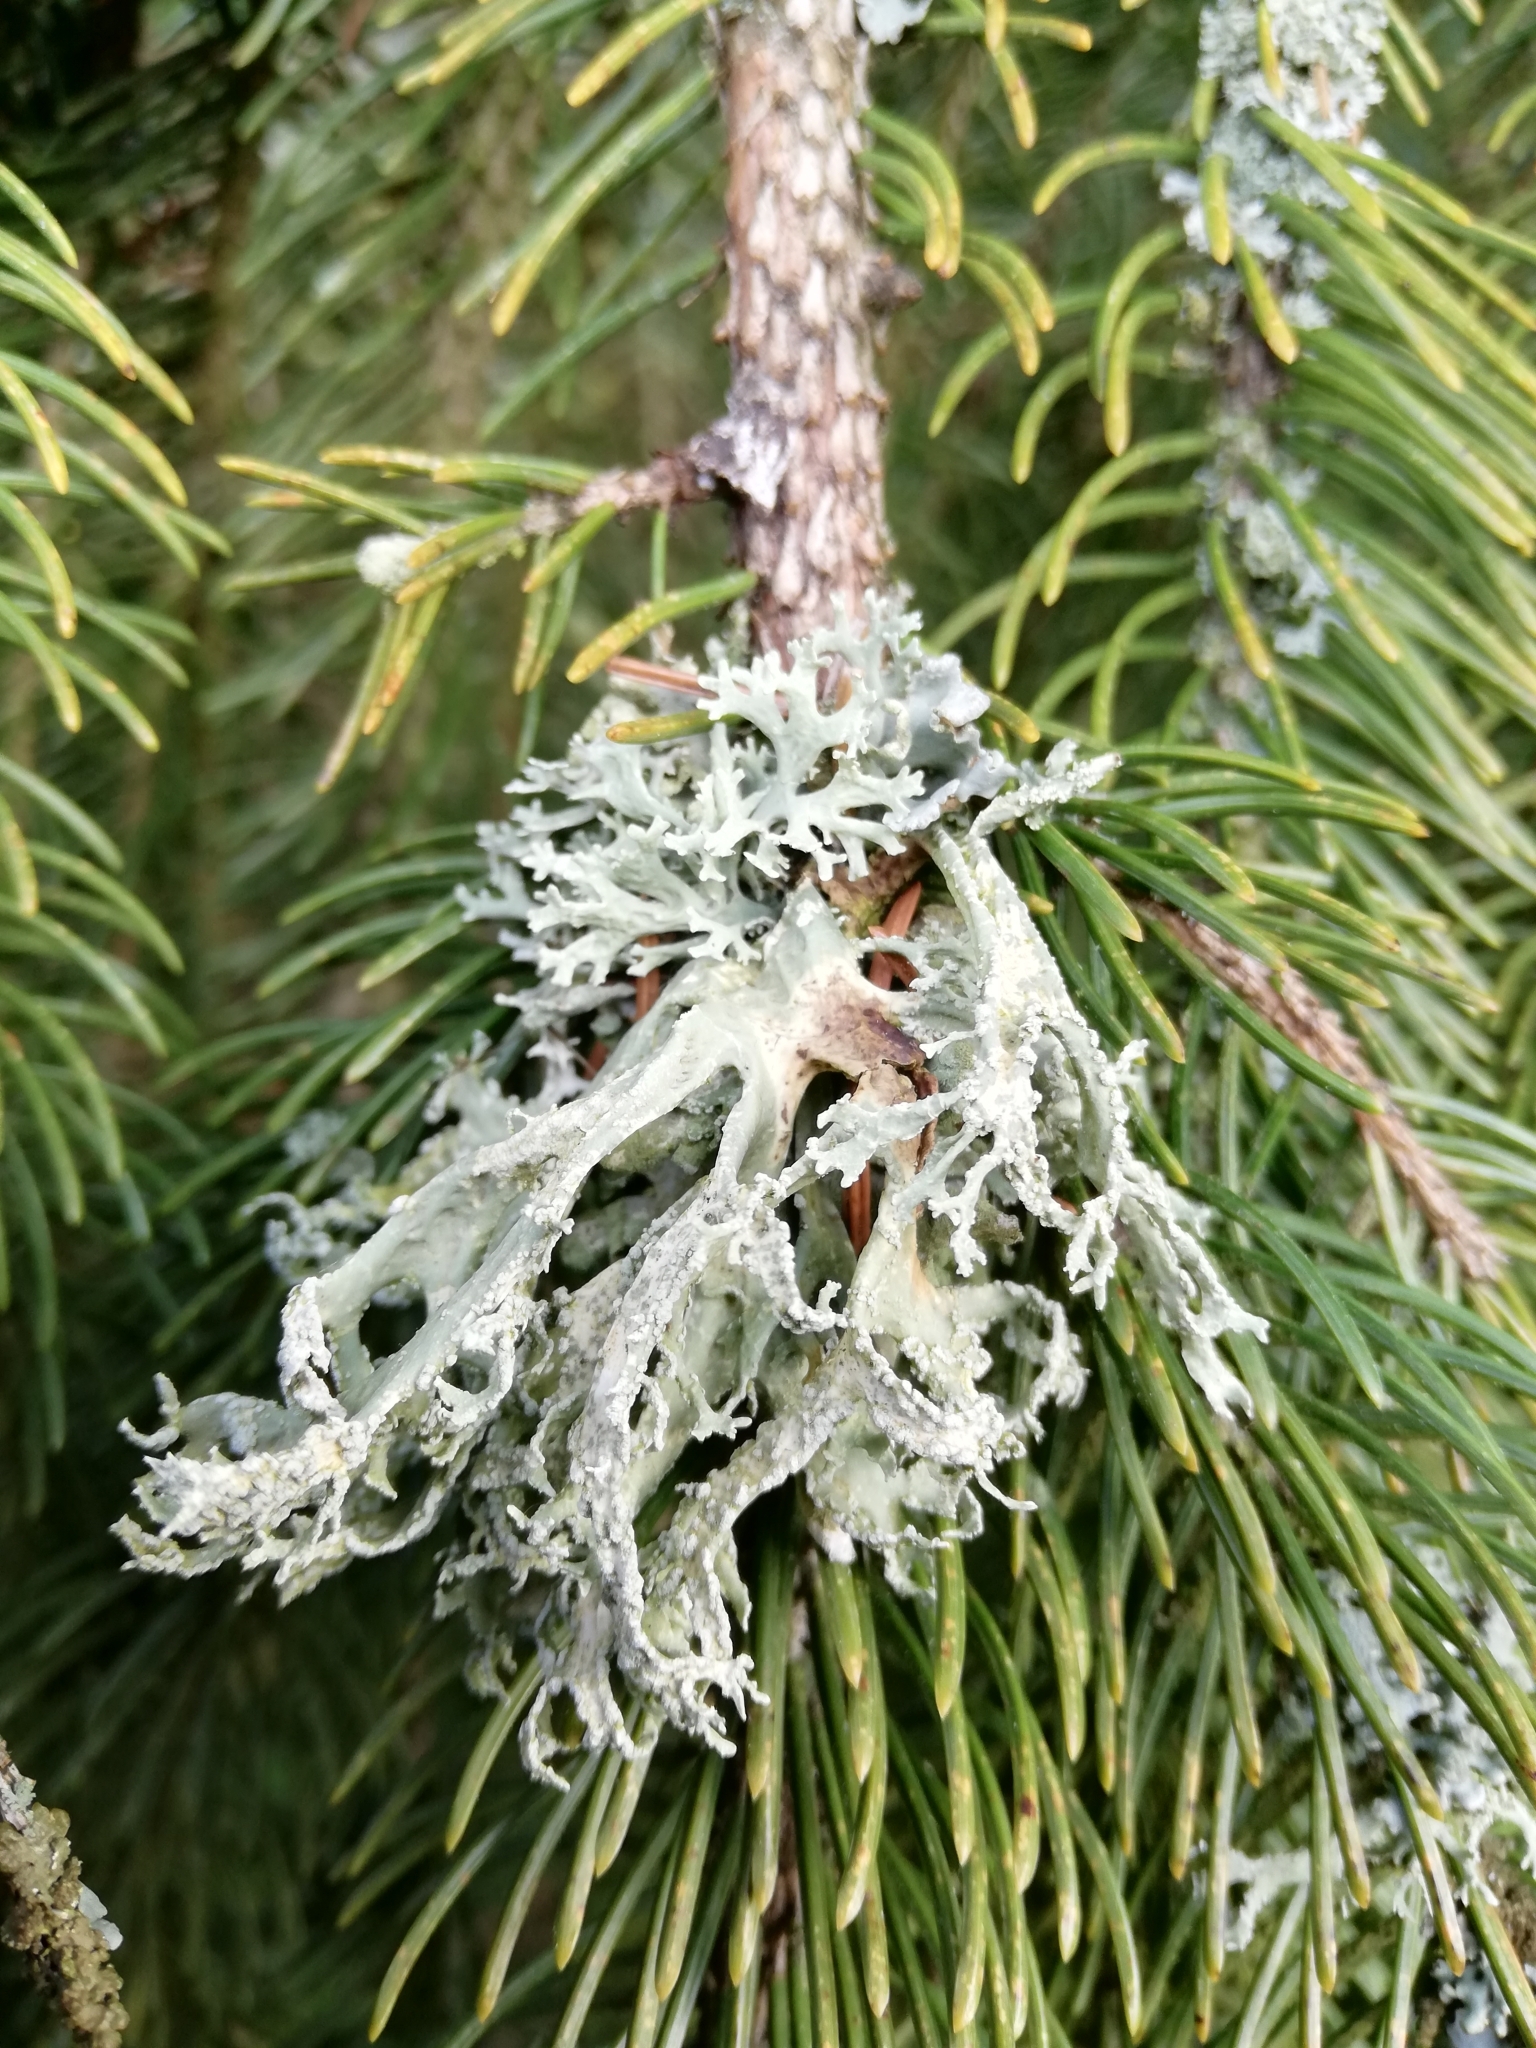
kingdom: Fungi
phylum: Ascomycota
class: Lecanoromycetes
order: Lecanorales
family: Parmeliaceae
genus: Evernia
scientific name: Evernia prunastri
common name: Oak moss
